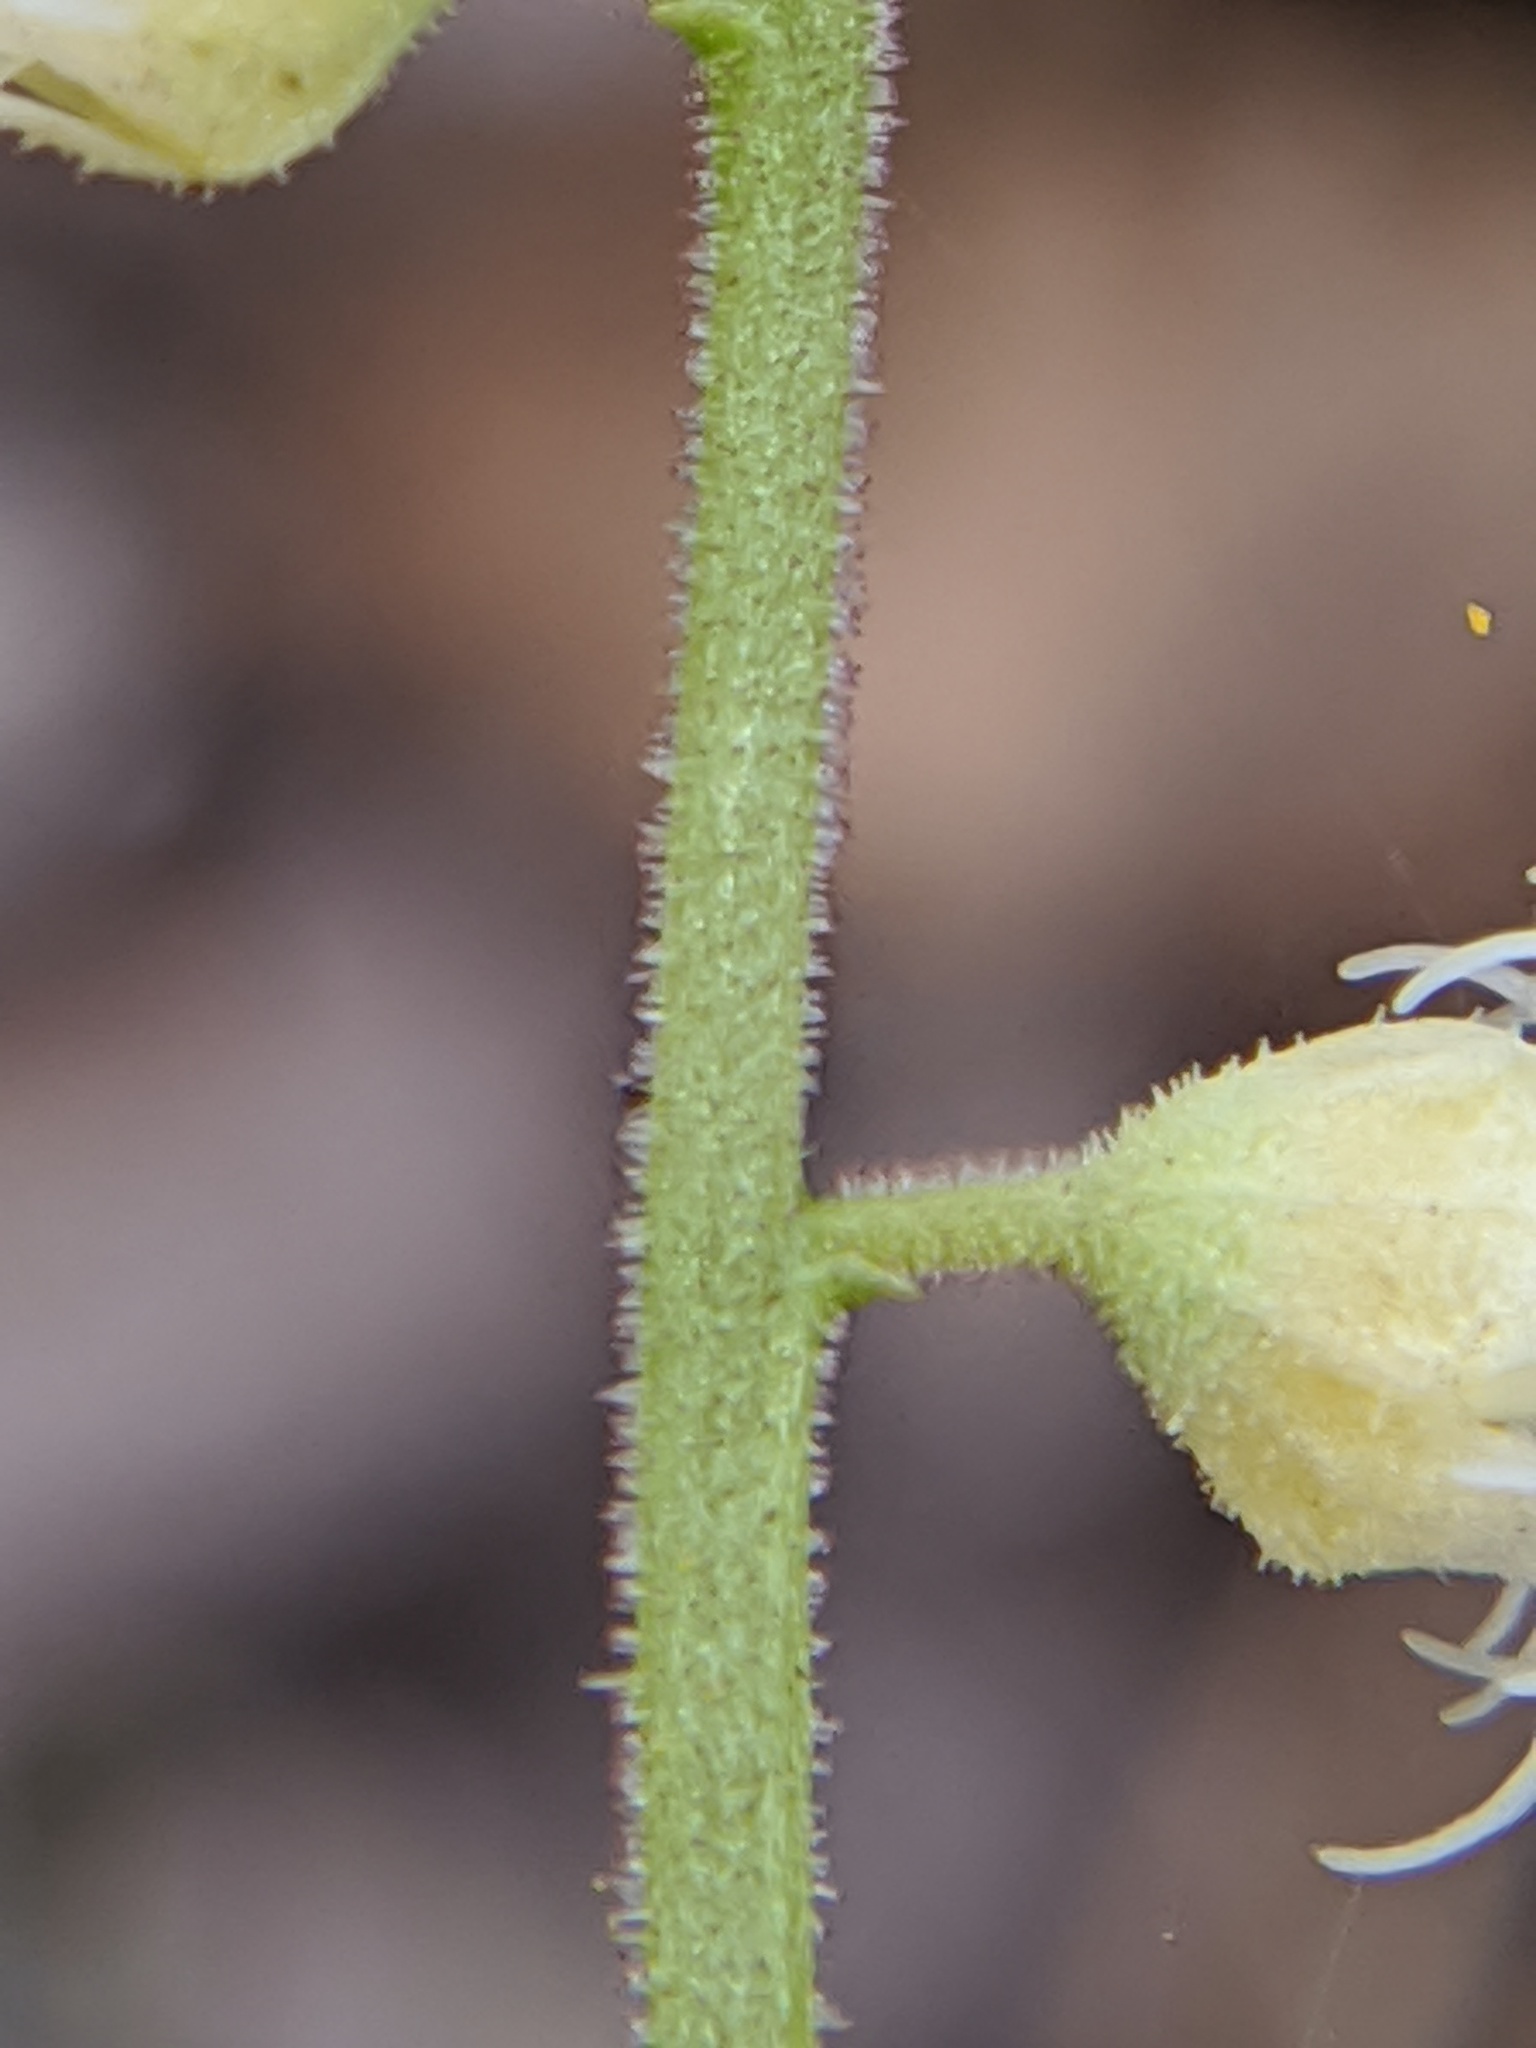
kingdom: Plantae
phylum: Tracheophyta
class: Magnoliopsida
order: Saxifragales
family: Saxifragaceae
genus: Mitella
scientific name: Mitella diphylla
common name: Coolwort
